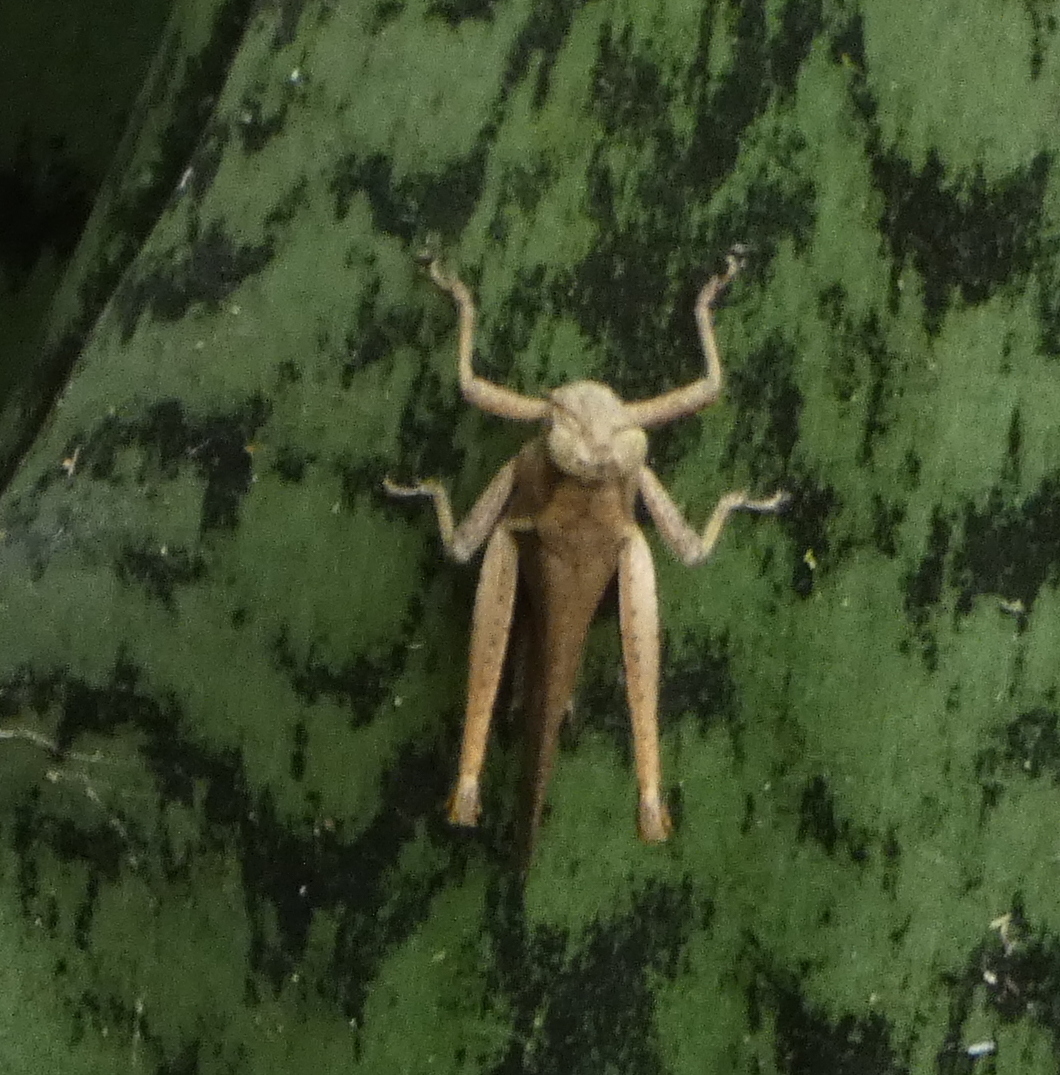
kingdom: Animalia
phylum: Arthropoda
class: Insecta
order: Orthoptera
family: Acrididae
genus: Abracris
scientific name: Abracris flavolineata
